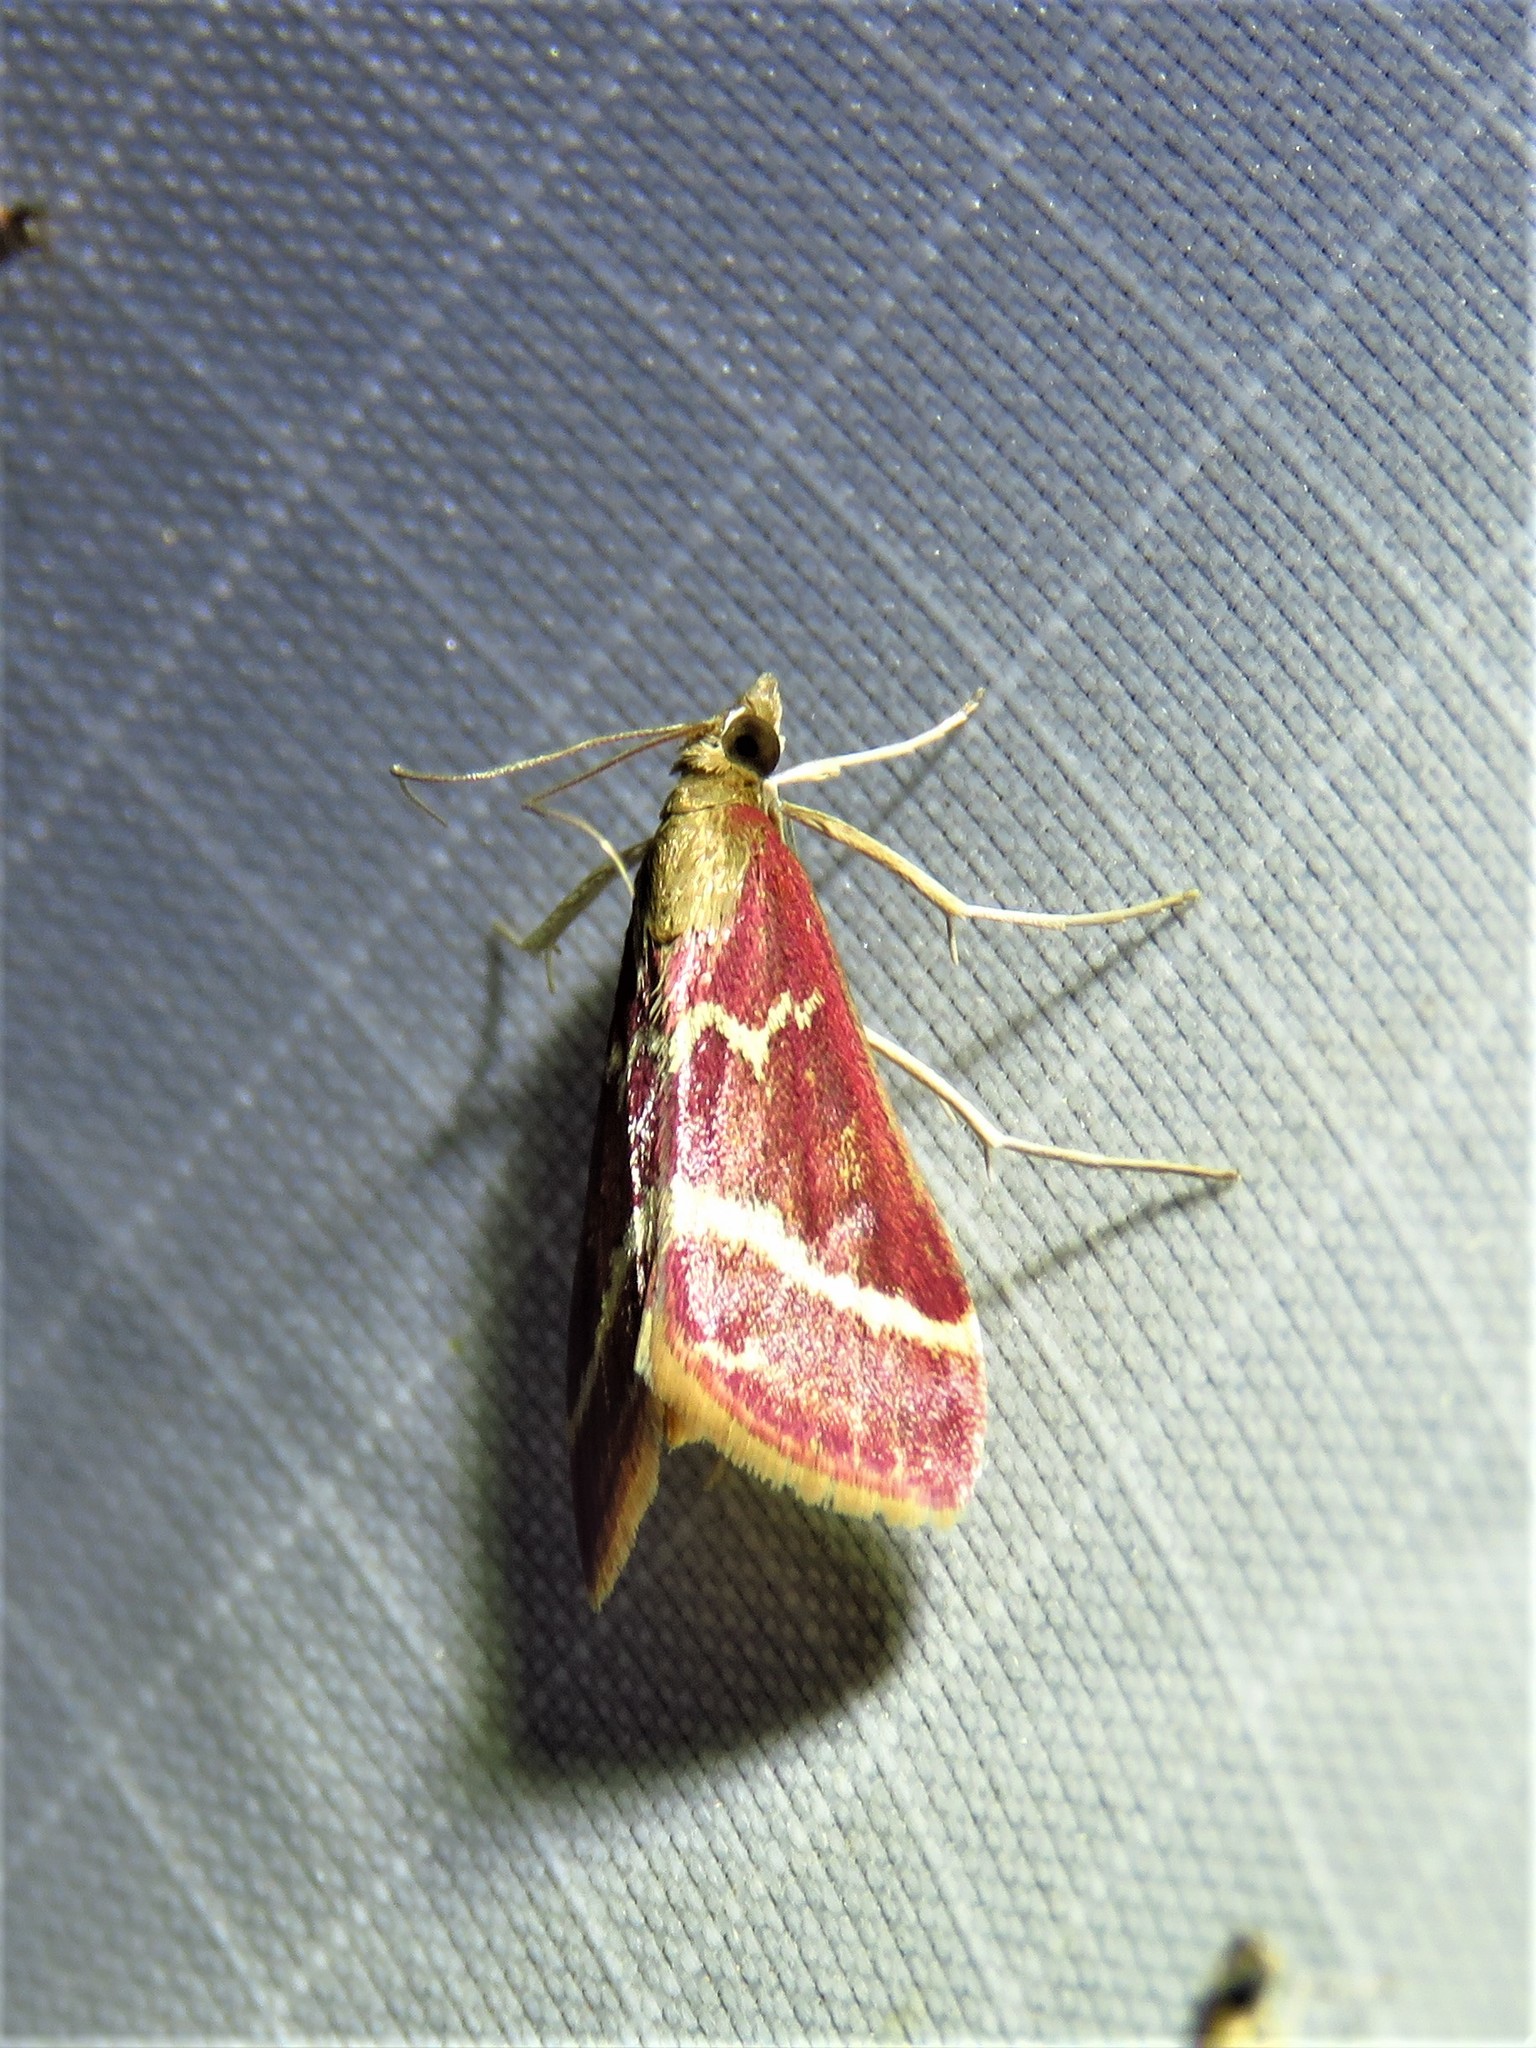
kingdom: Animalia
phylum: Arthropoda
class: Insecta
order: Lepidoptera
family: Crambidae
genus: Pyrausta
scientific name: Pyrausta volupialis
